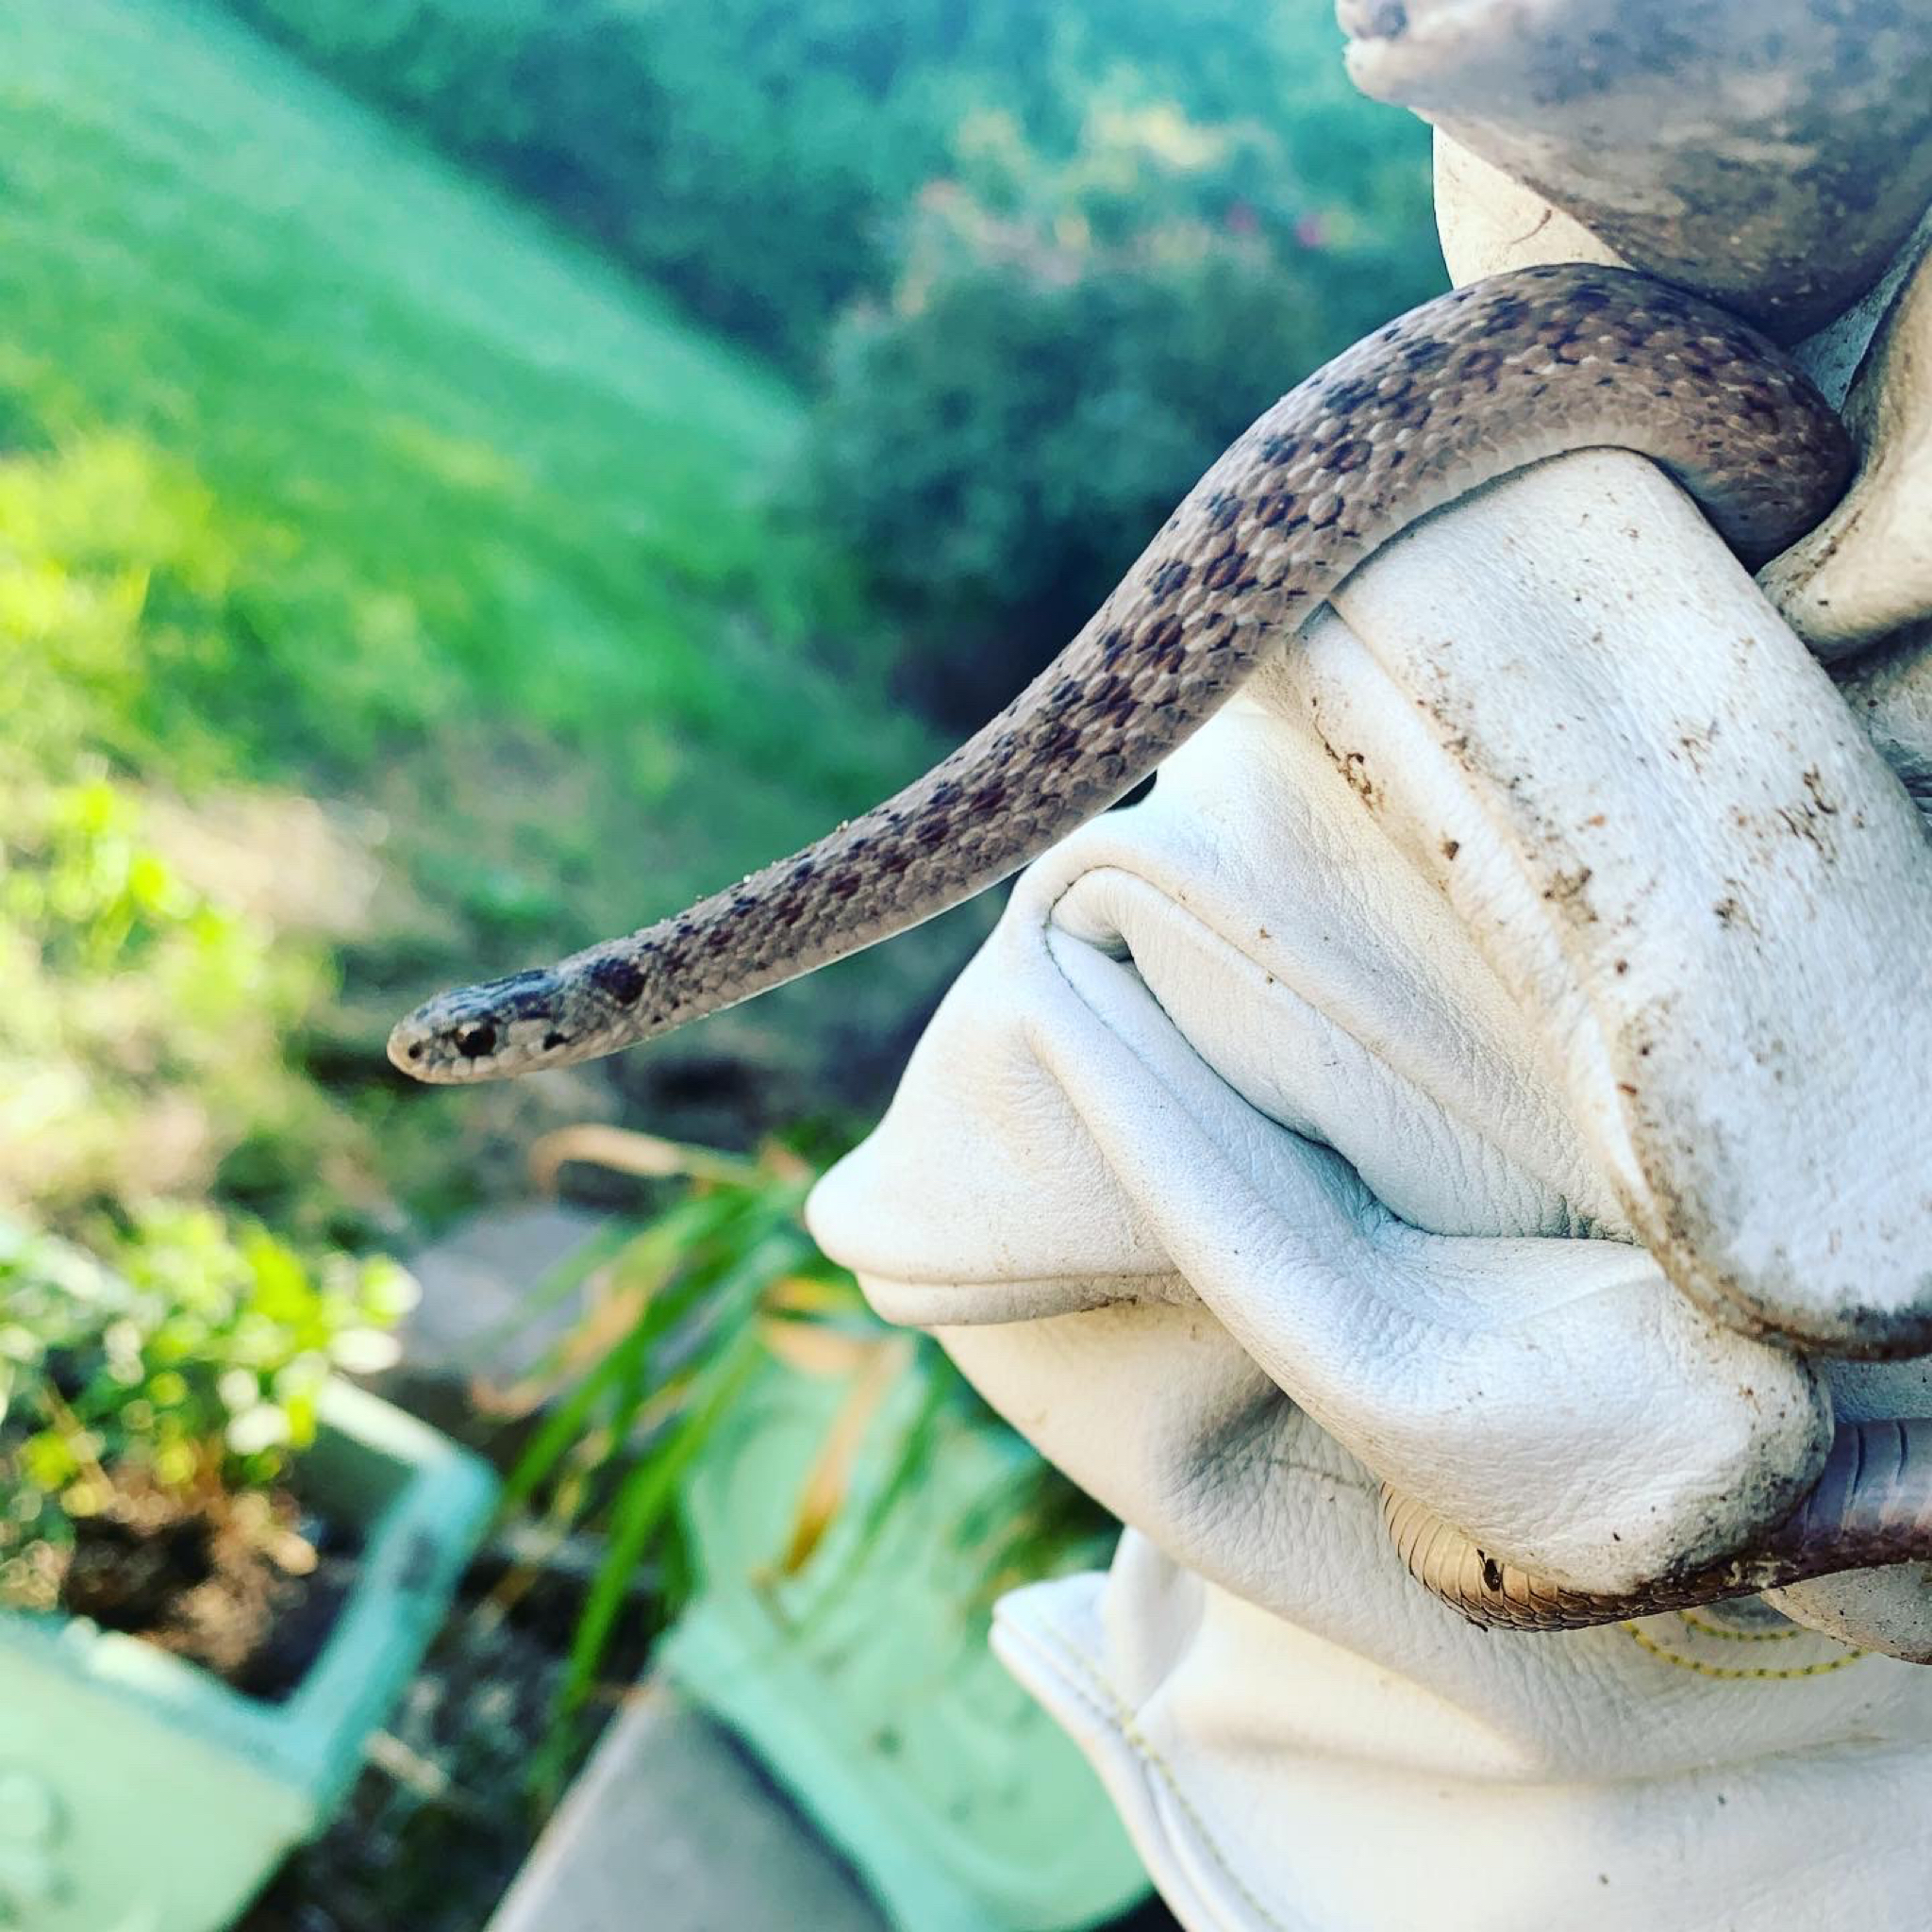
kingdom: Animalia
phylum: Chordata
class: Squamata
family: Colubridae
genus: Storeria
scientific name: Storeria dekayi
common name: (dekay’s) brown snake
